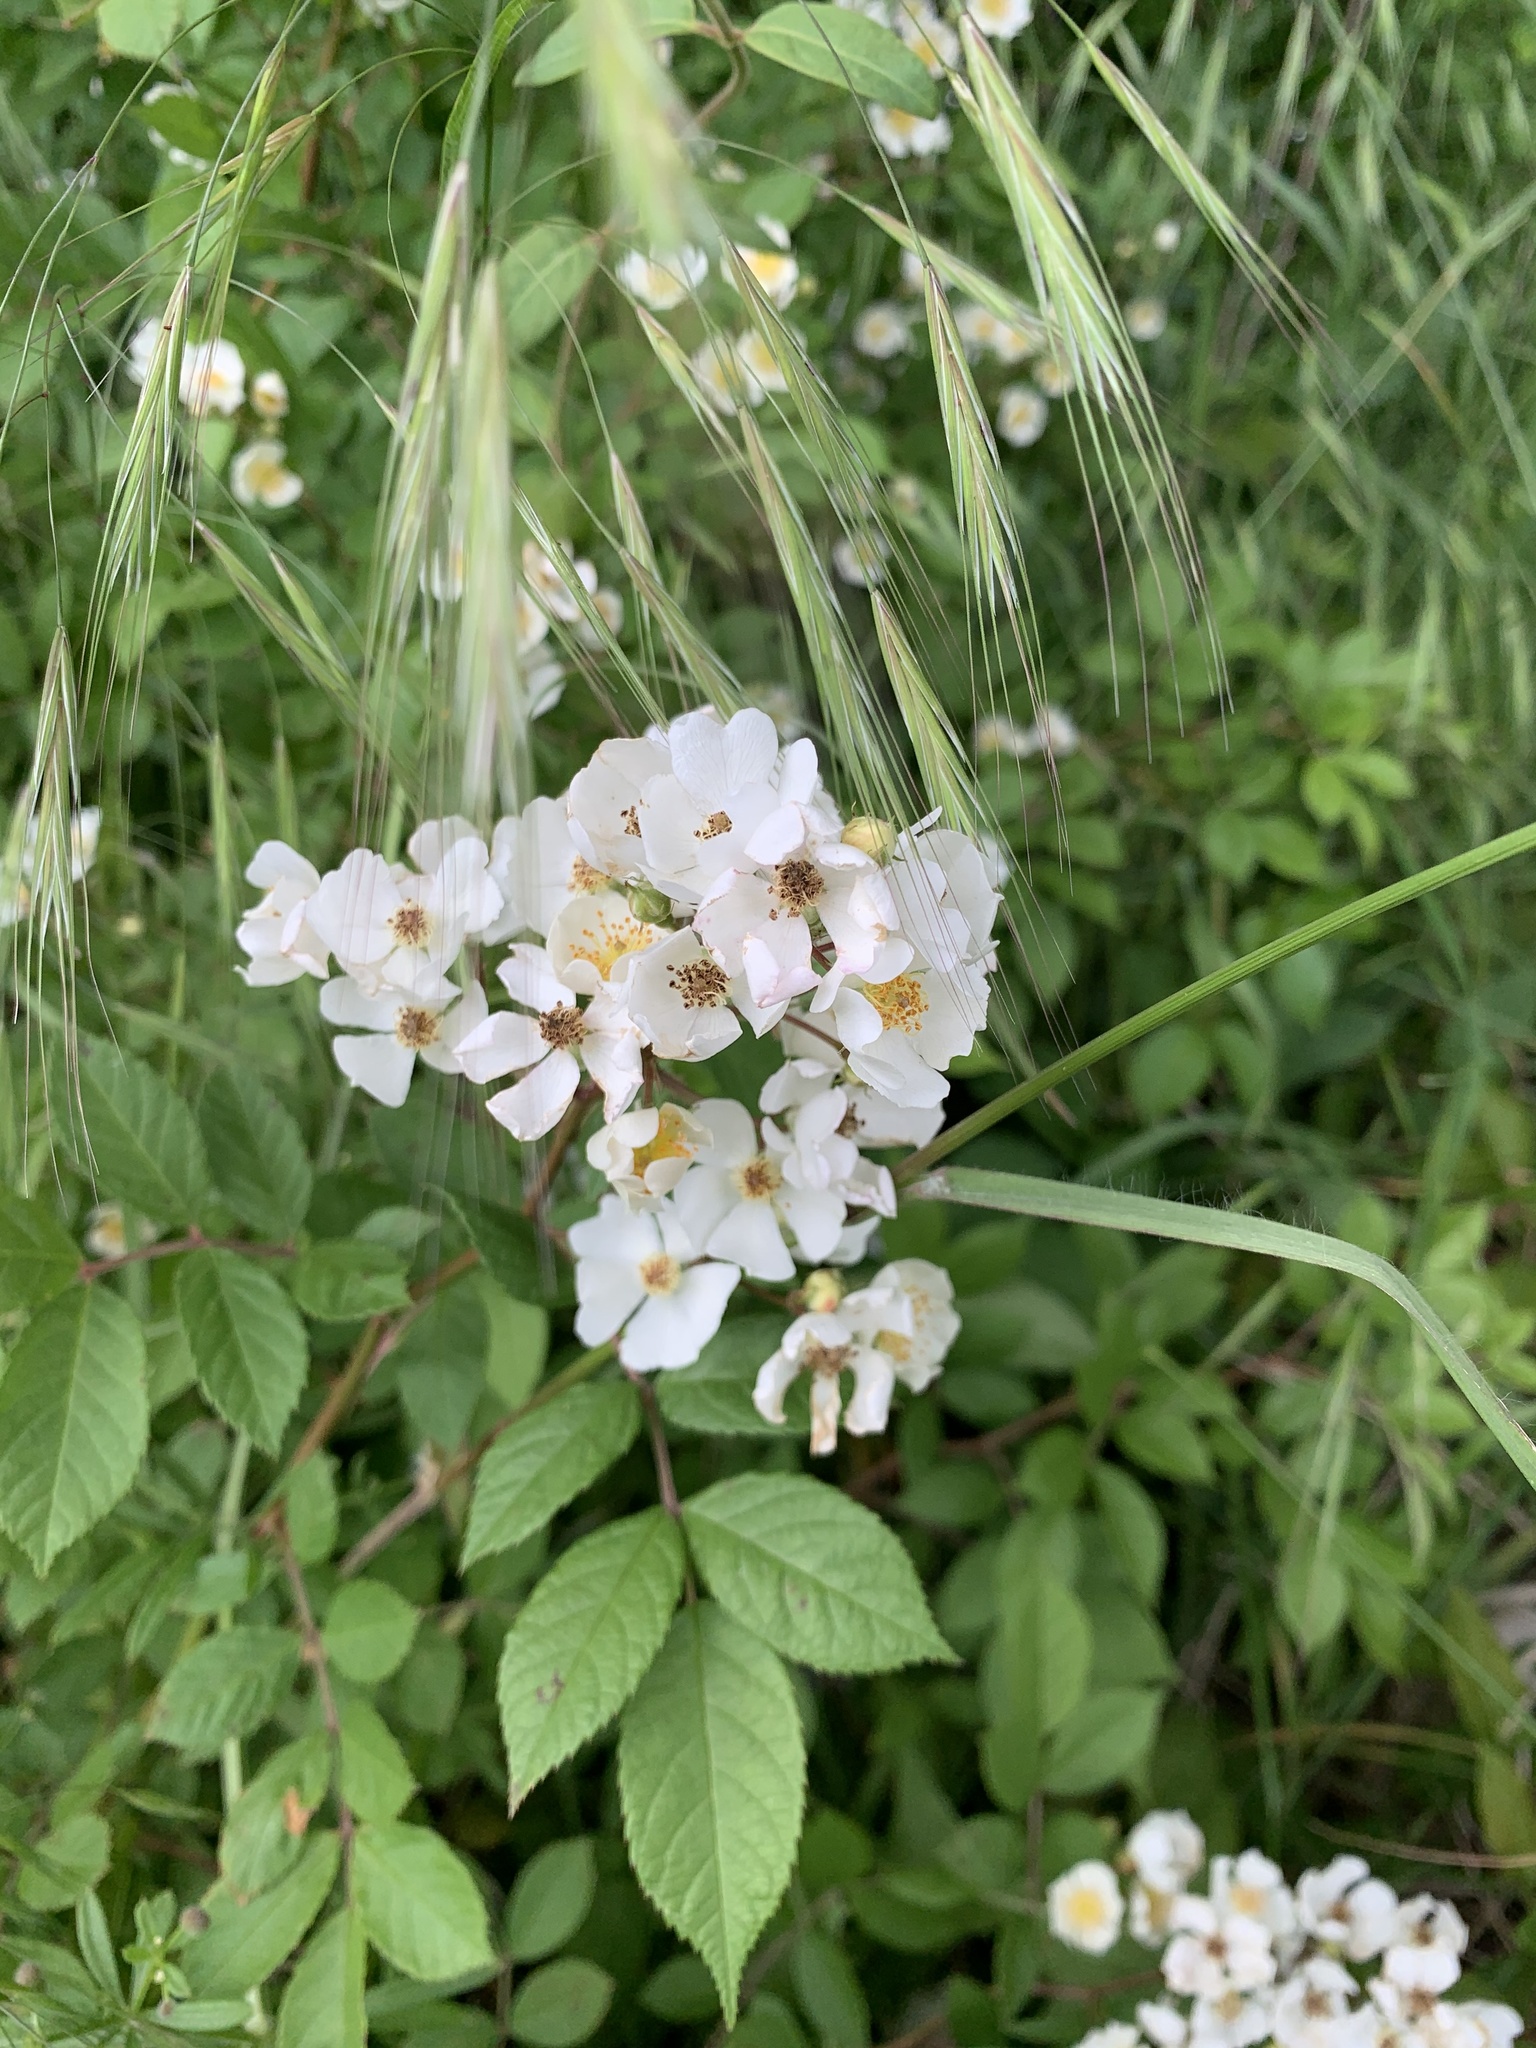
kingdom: Plantae
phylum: Tracheophyta
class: Magnoliopsida
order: Rosales
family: Rosaceae
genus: Rosa
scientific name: Rosa multiflora
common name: Multiflora rose
